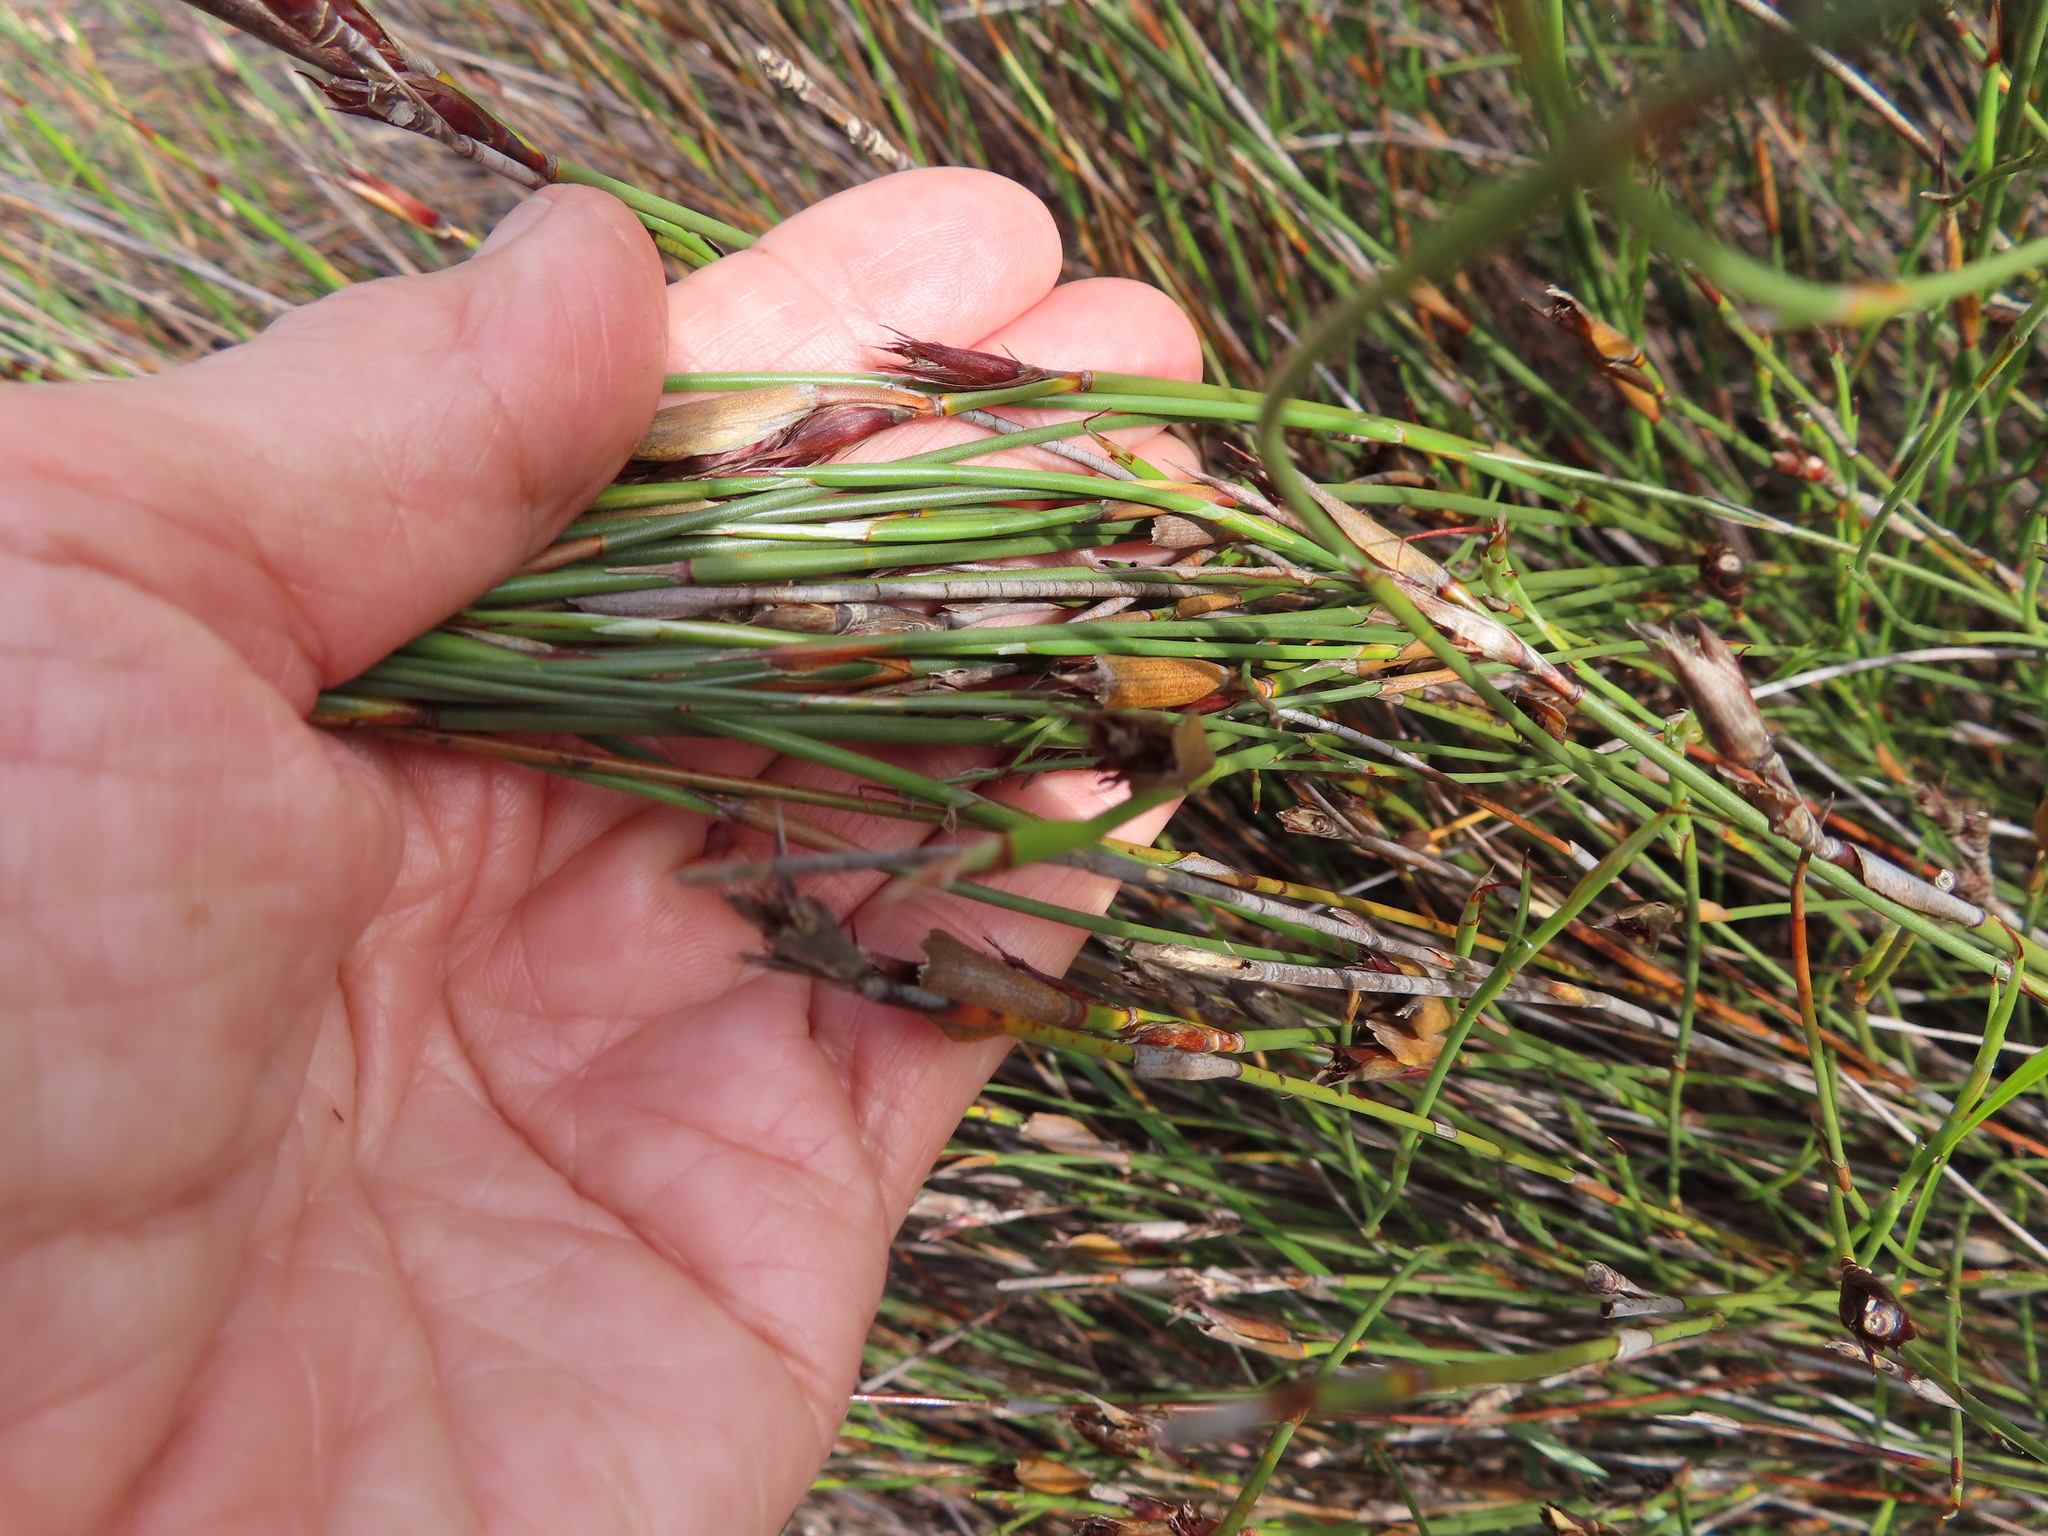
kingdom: Plantae
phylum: Tracheophyta
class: Liliopsida
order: Poales
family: Restionaceae
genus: Willdenowia
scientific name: Willdenowia teres
